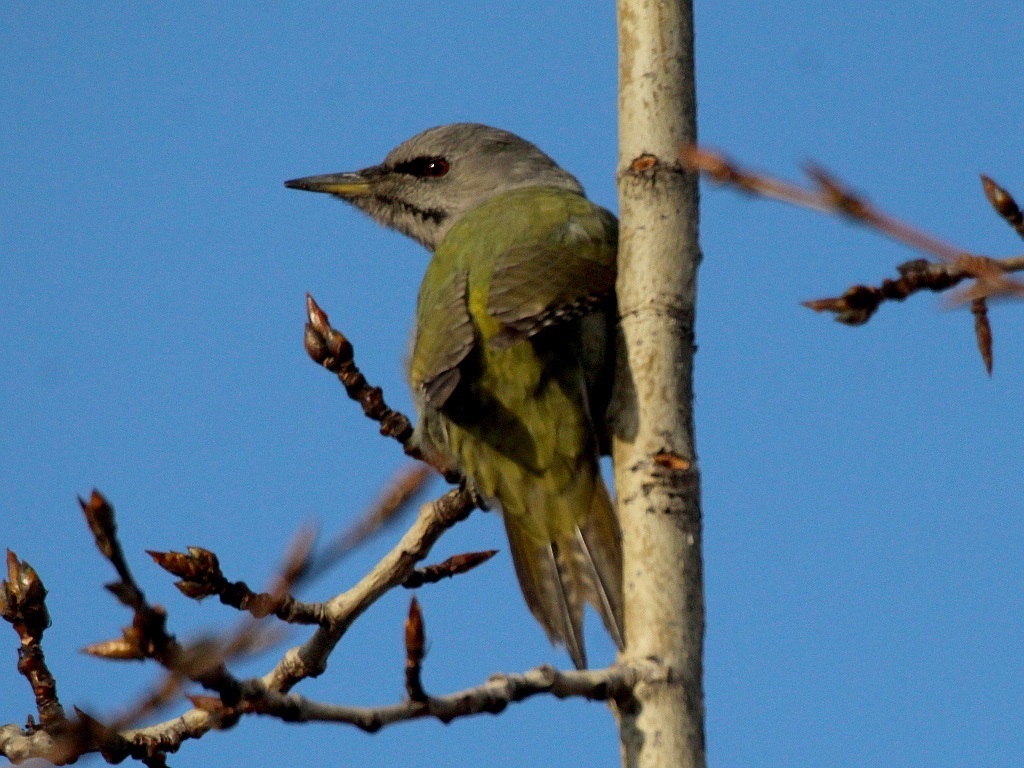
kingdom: Animalia
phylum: Chordata
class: Aves
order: Piciformes
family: Picidae
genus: Picus
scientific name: Picus canus
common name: Grey-headed woodpecker
